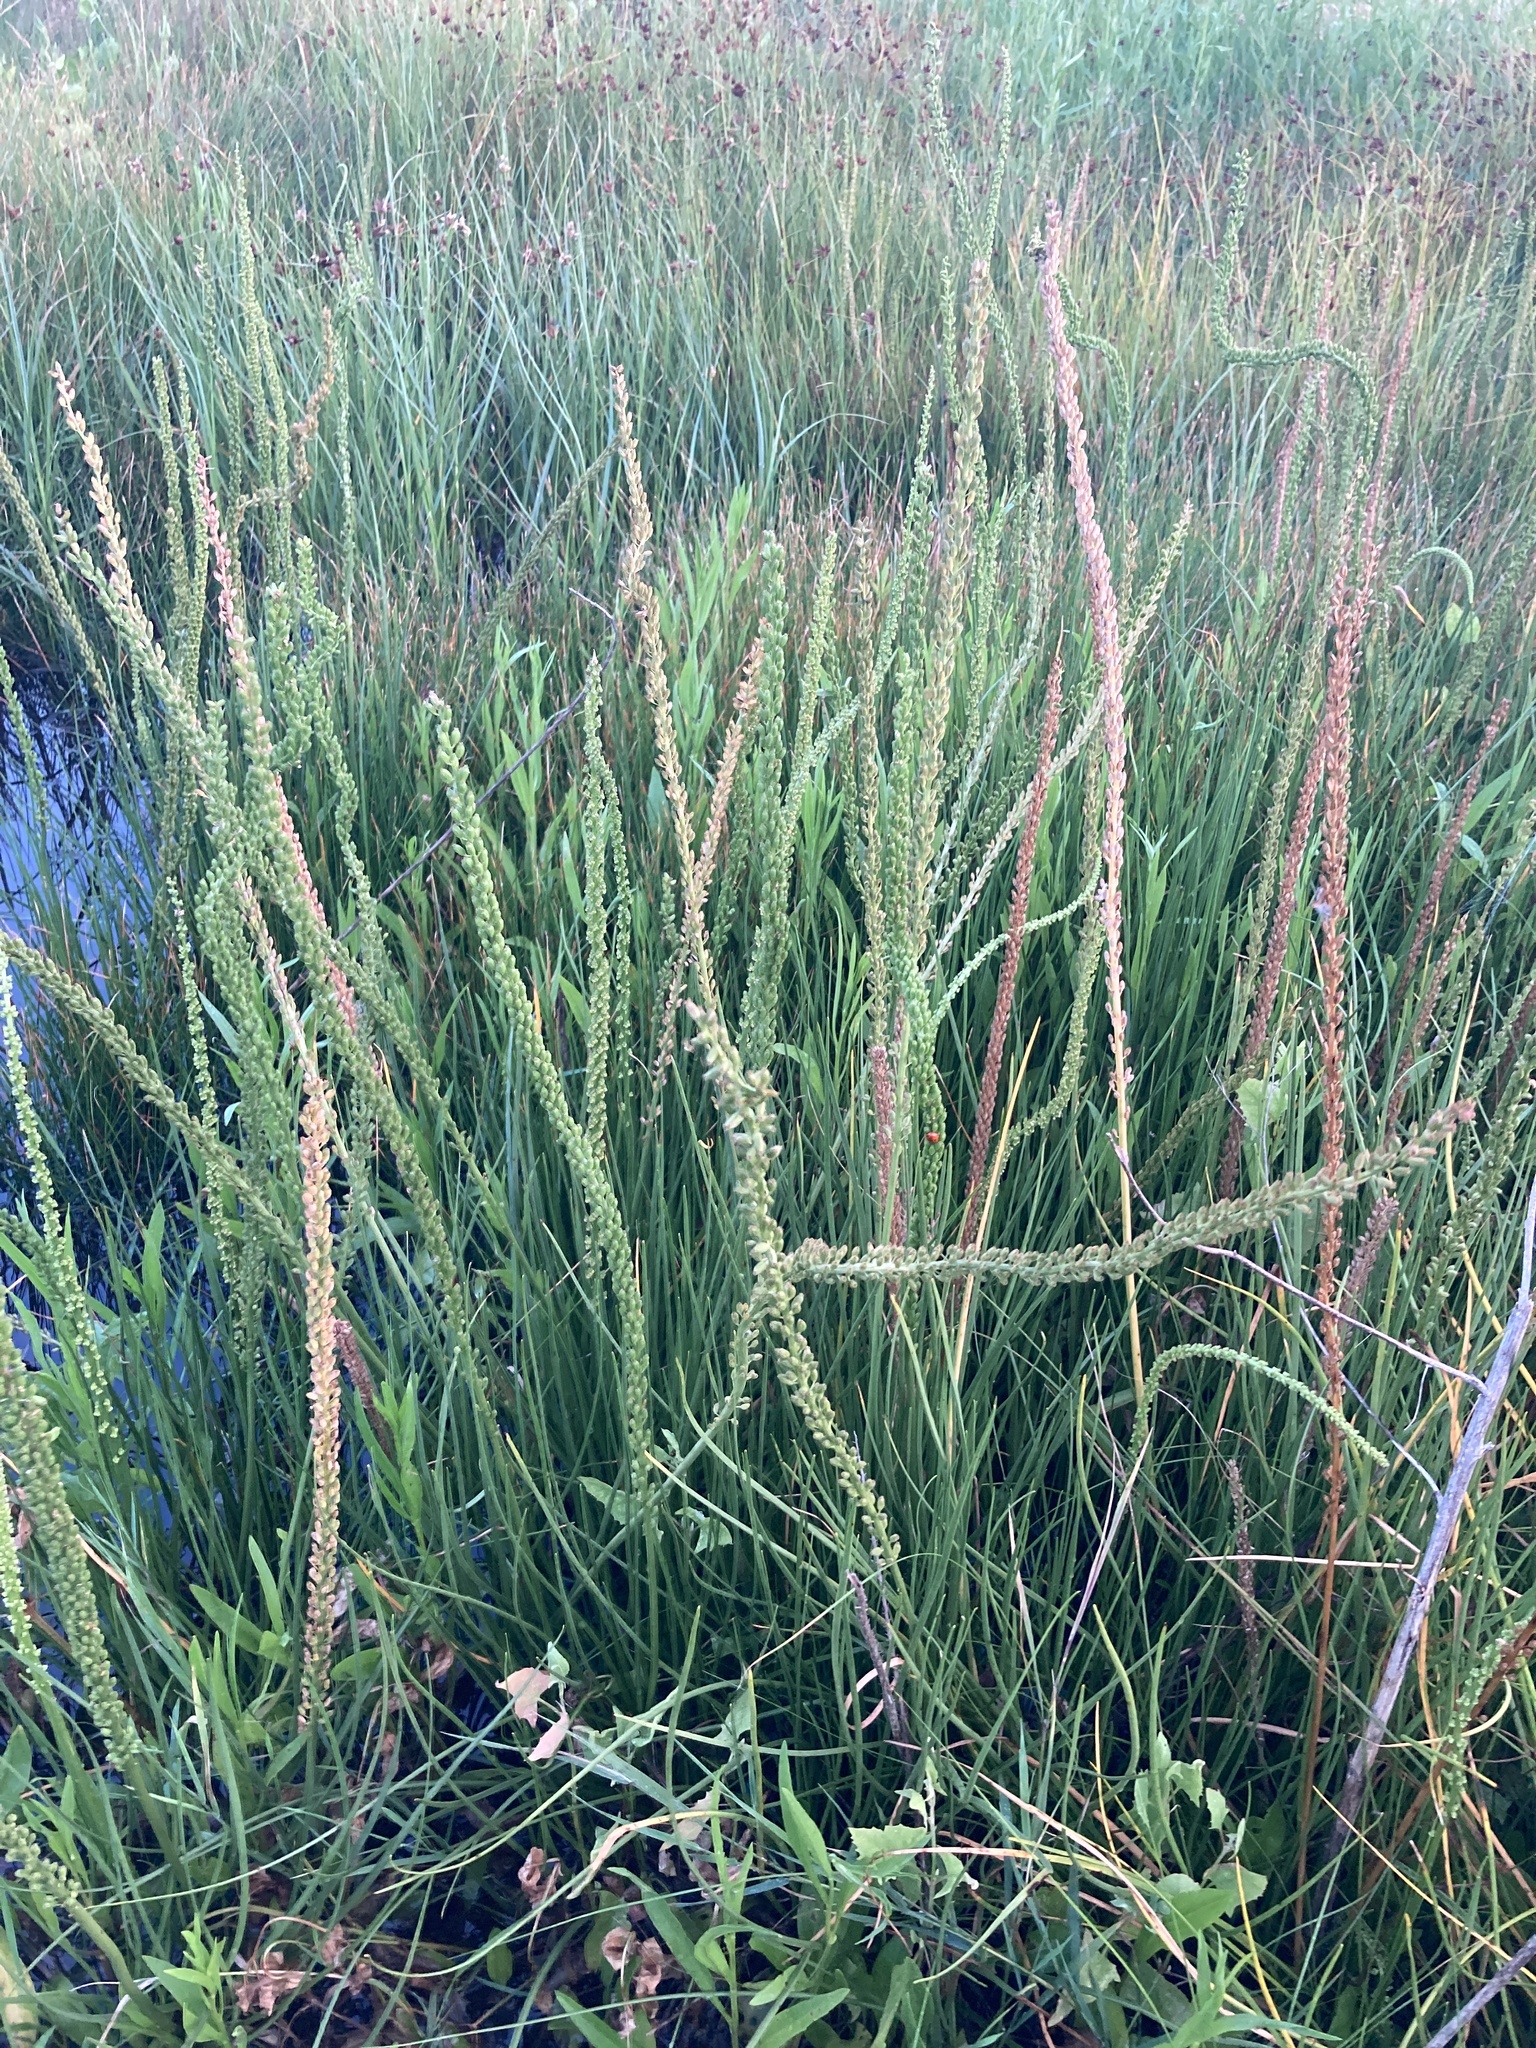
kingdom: Plantae
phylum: Tracheophyta
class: Liliopsida
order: Alismatales
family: Juncaginaceae
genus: Triglochin
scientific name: Triglochin maritima
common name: Sea arrowgrass
